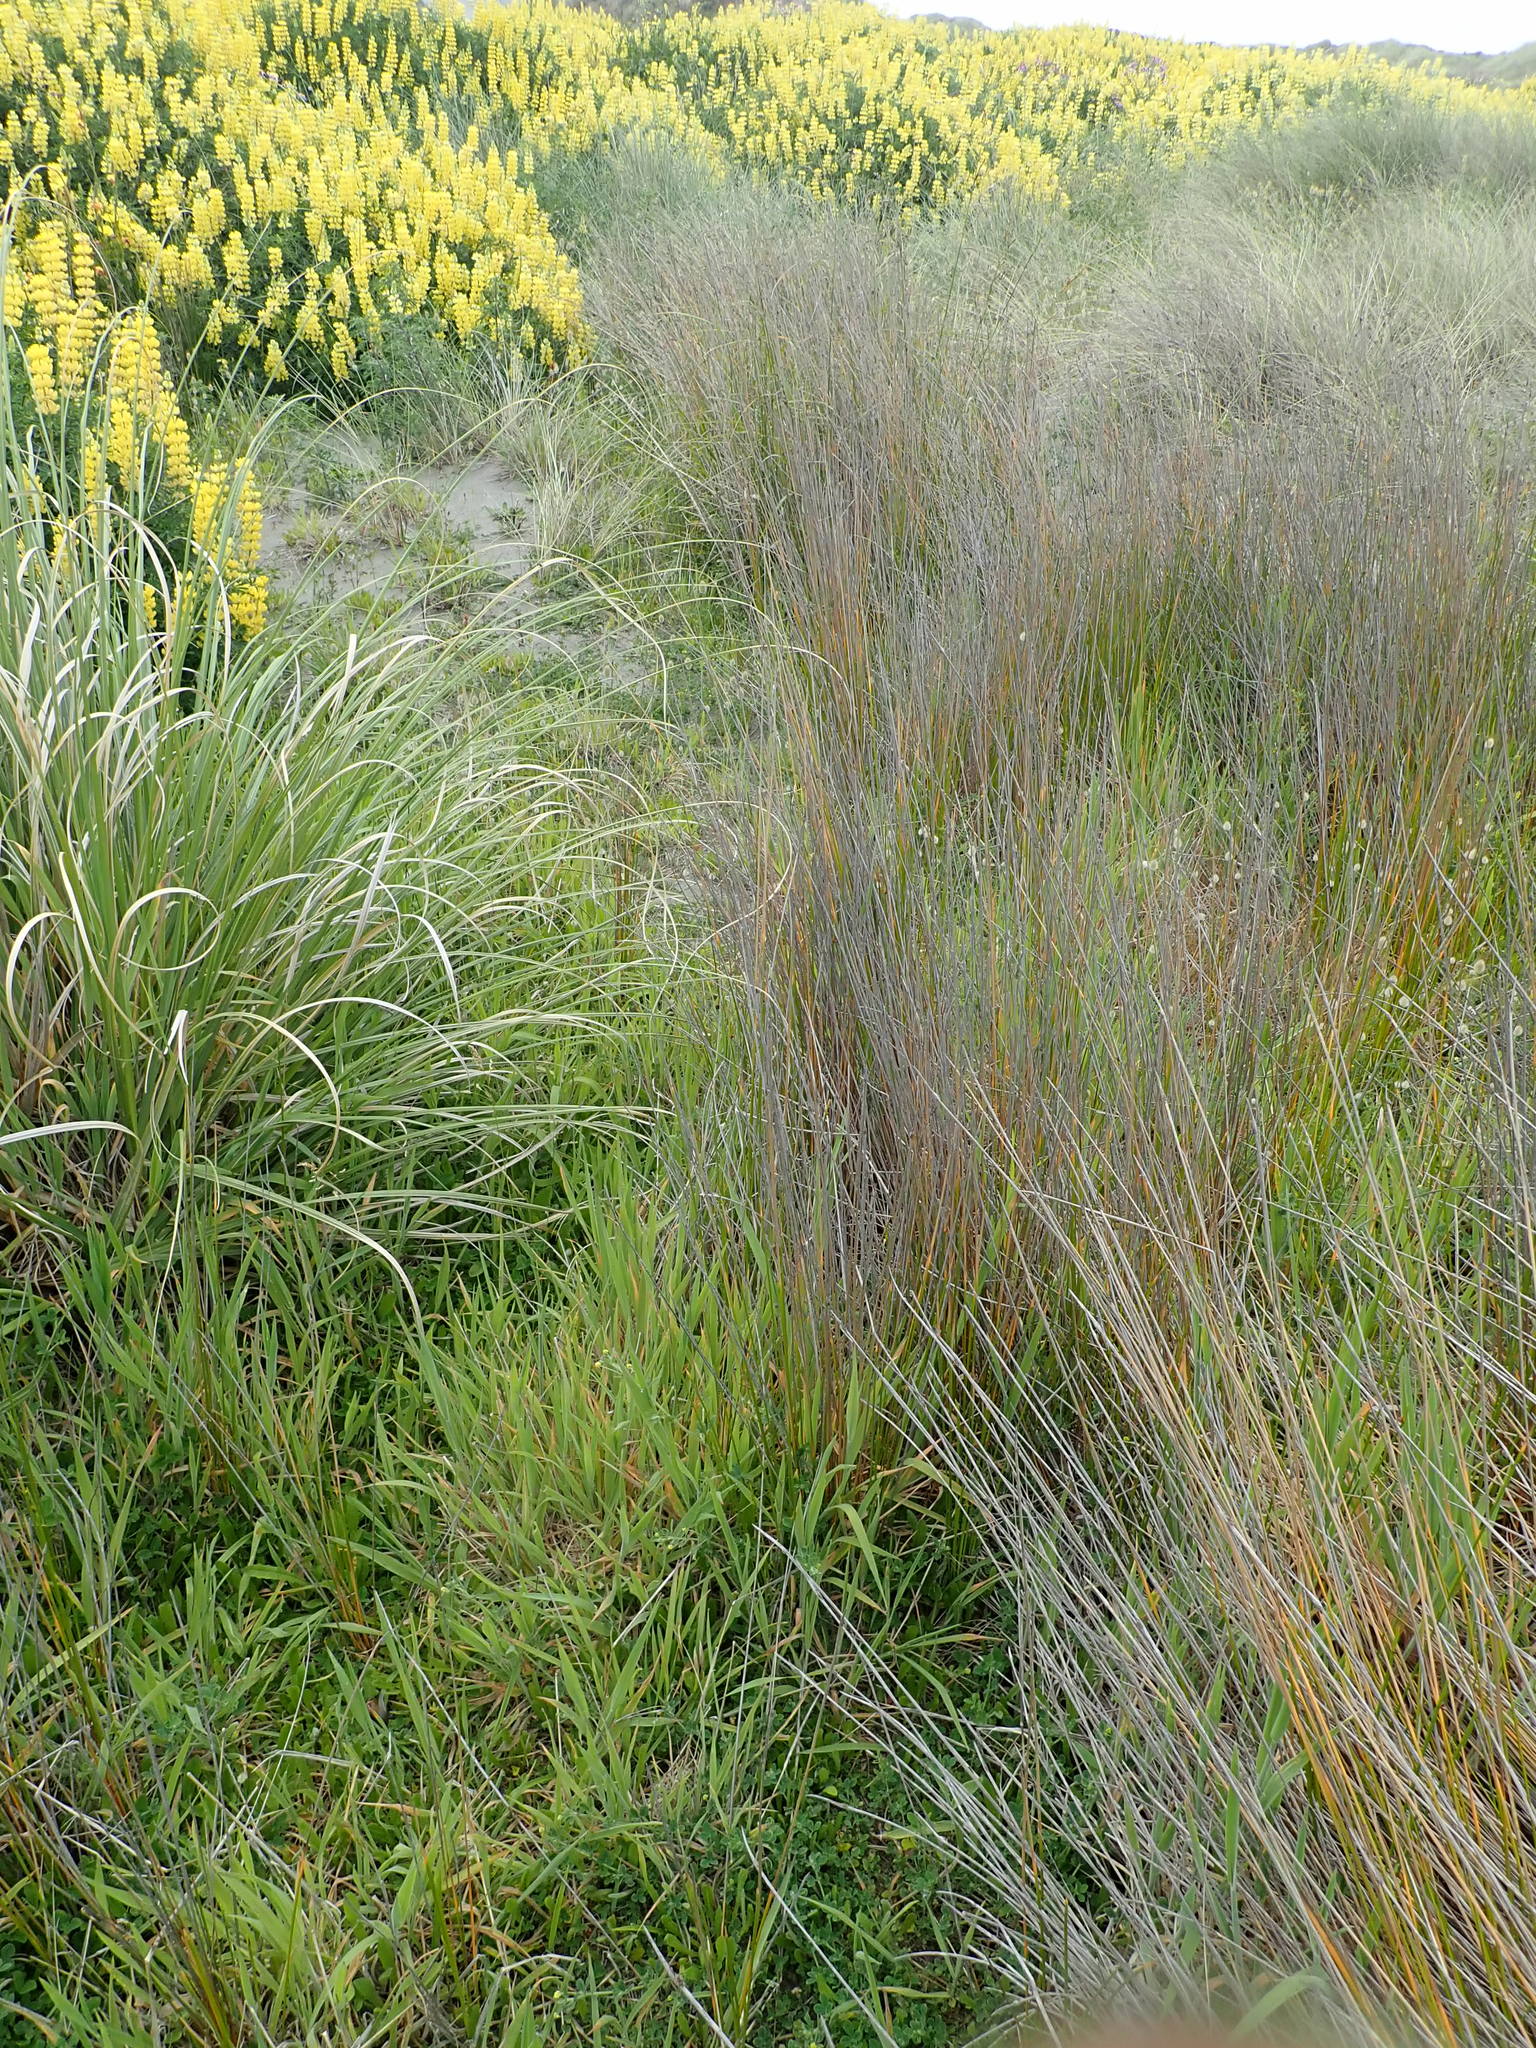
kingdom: Plantae
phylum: Tracheophyta
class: Liliopsida
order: Poales
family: Cyperaceae
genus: Ficinia
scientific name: Ficinia nodosa
